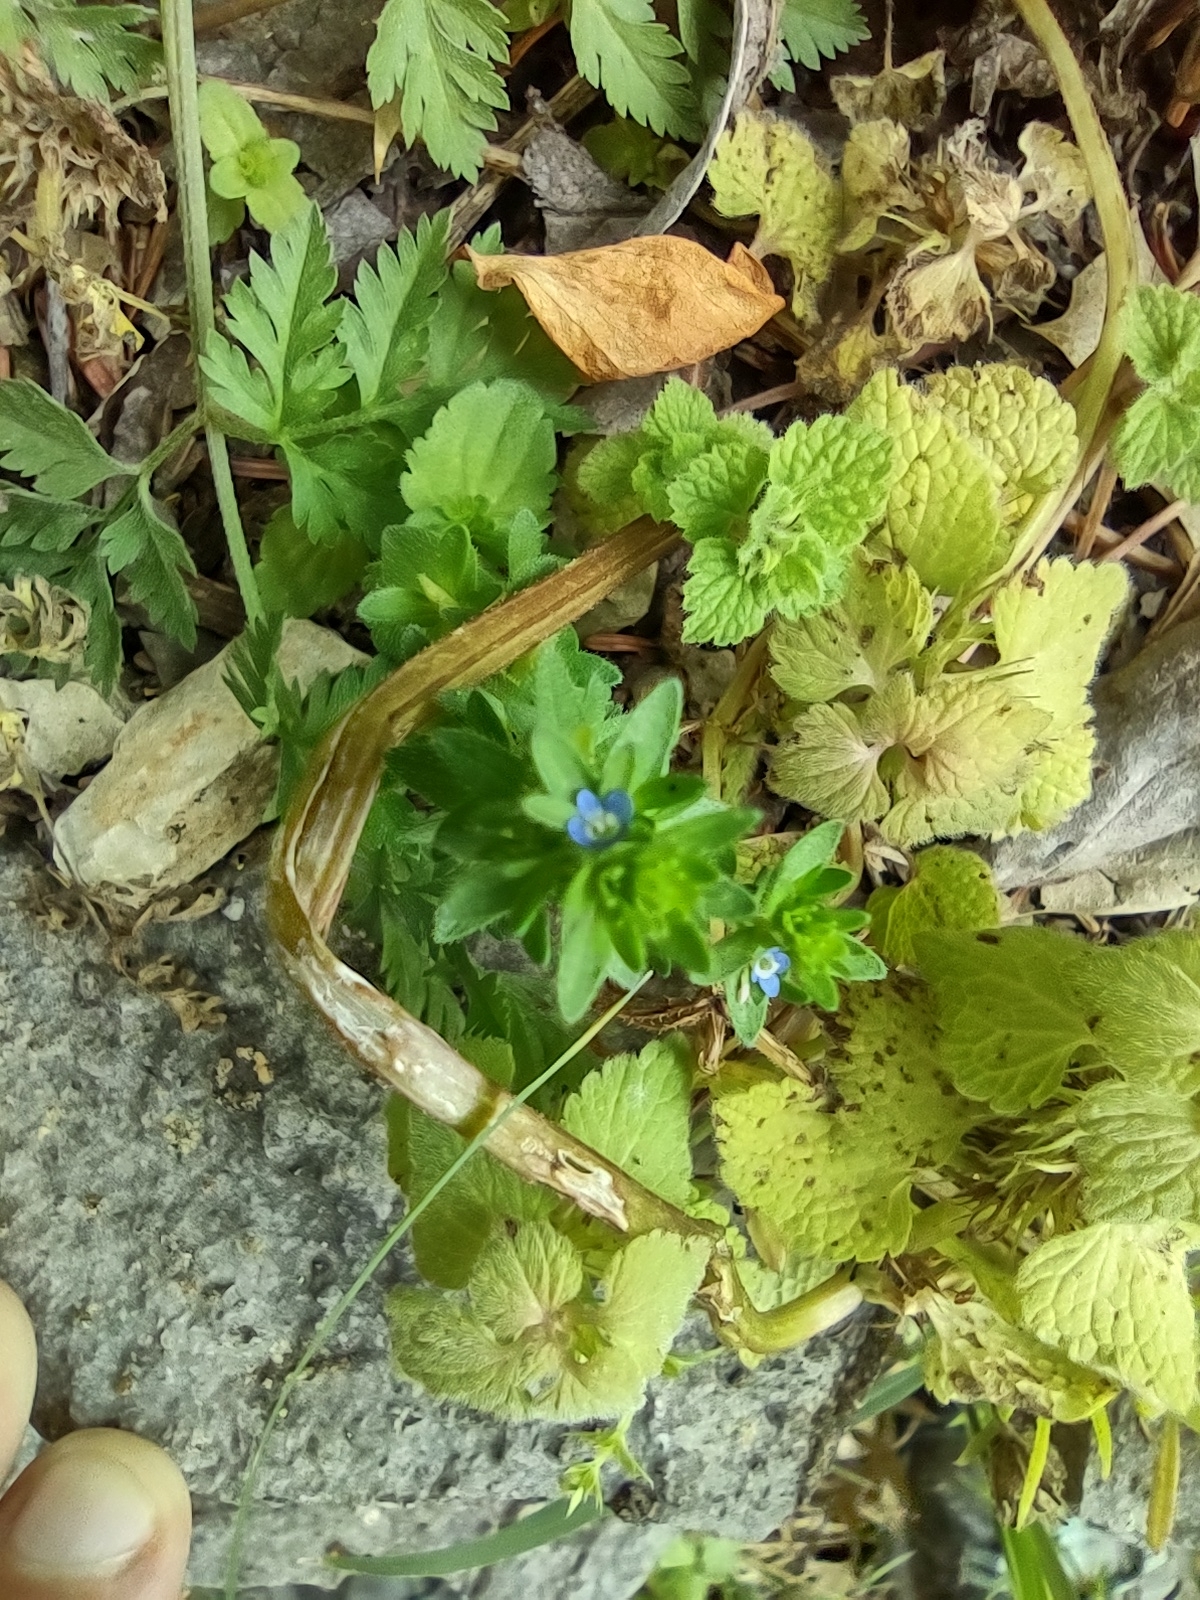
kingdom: Plantae
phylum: Tracheophyta
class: Magnoliopsida
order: Lamiales
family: Plantaginaceae
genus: Veronica
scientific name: Veronica arvensis
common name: Corn speedwell
